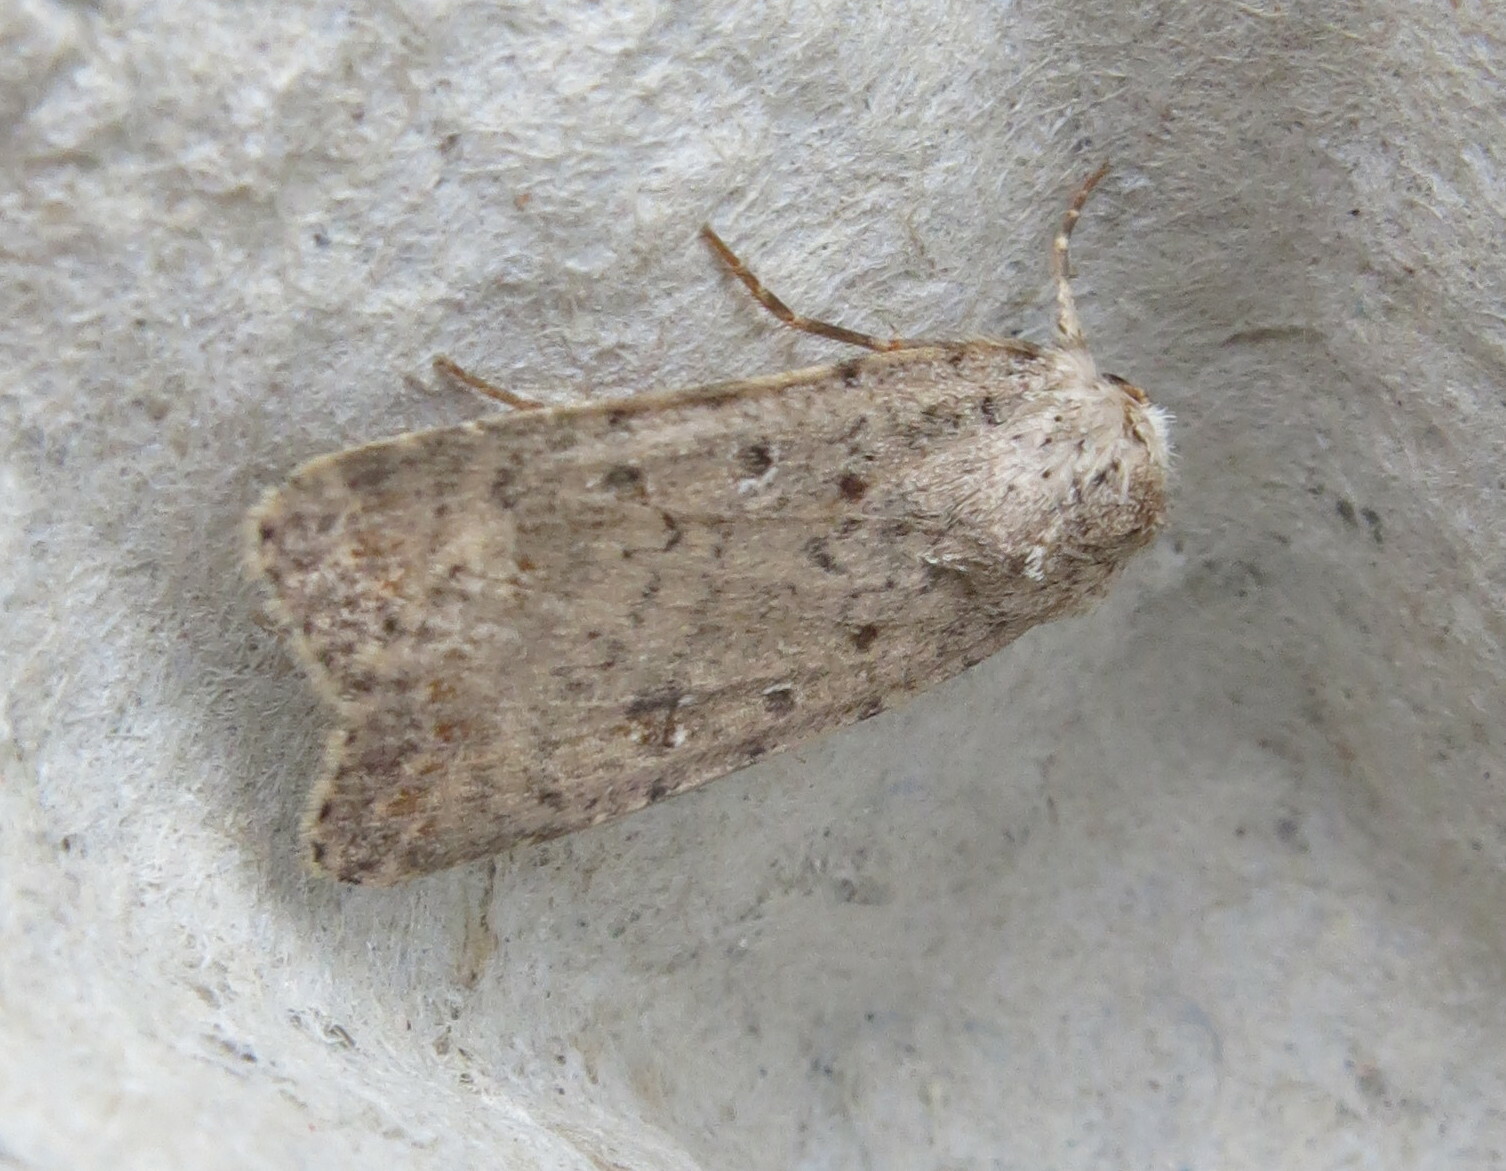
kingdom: Animalia
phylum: Arthropoda
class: Insecta
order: Lepidoptera
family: Noctuidae
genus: Caradrina
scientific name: Caradrina clavipalpis
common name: Pale mottled willow
